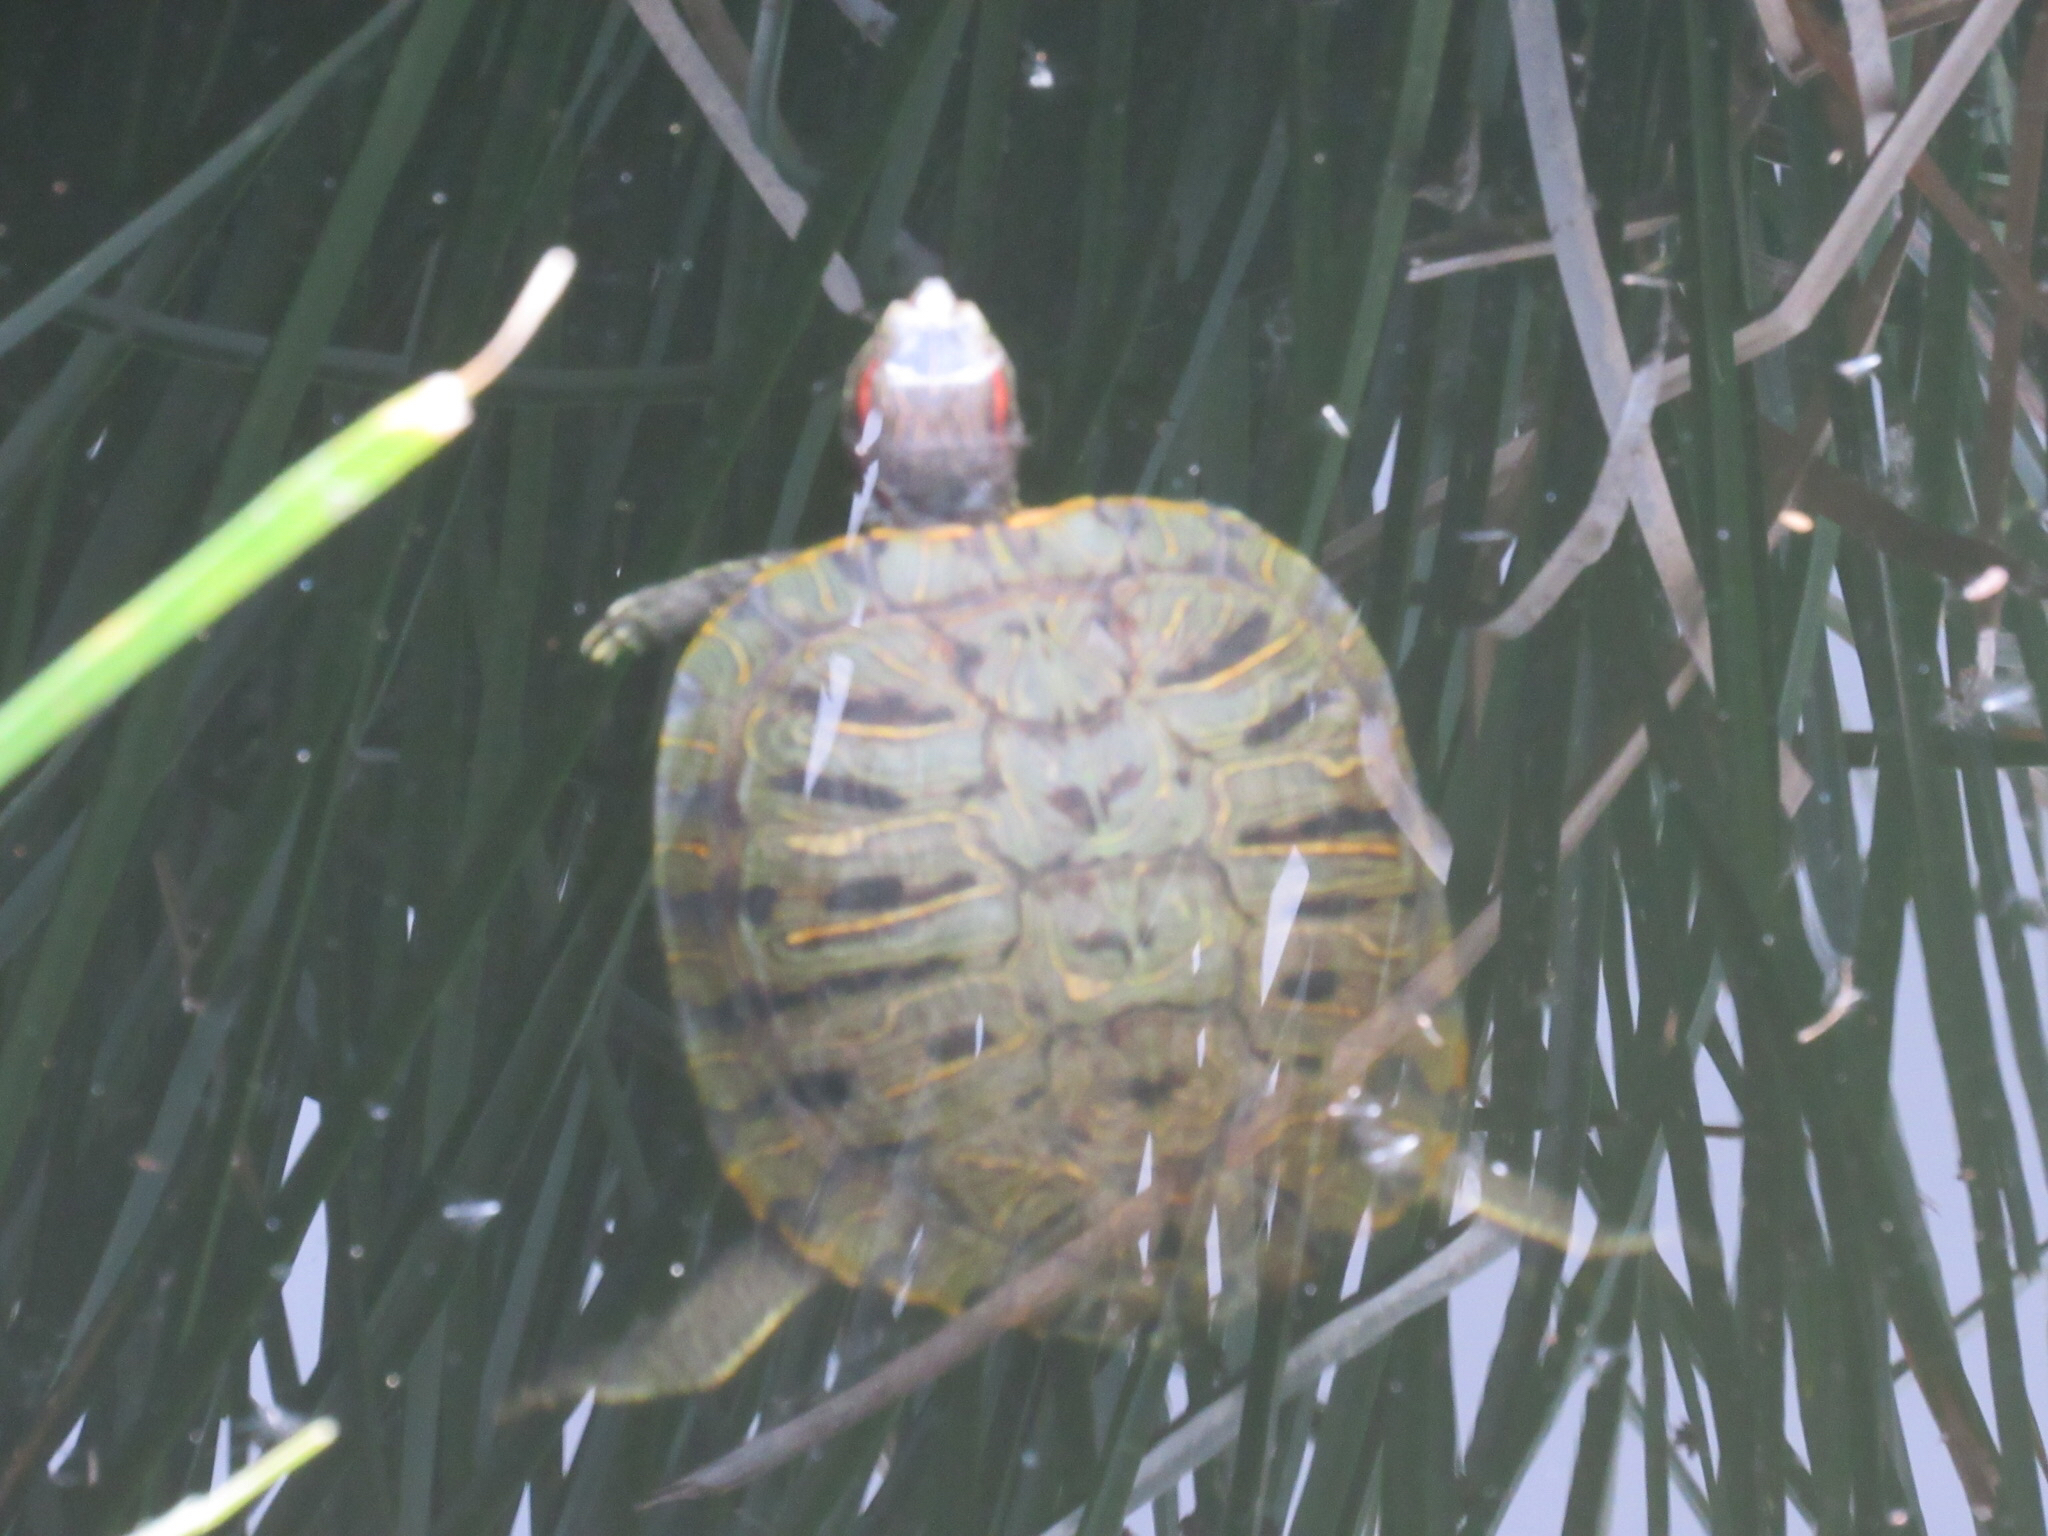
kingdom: Animalia
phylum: Chordata
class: Testudines
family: Emydidae
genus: Trachemys
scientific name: Trachemys scripta
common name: Slider
